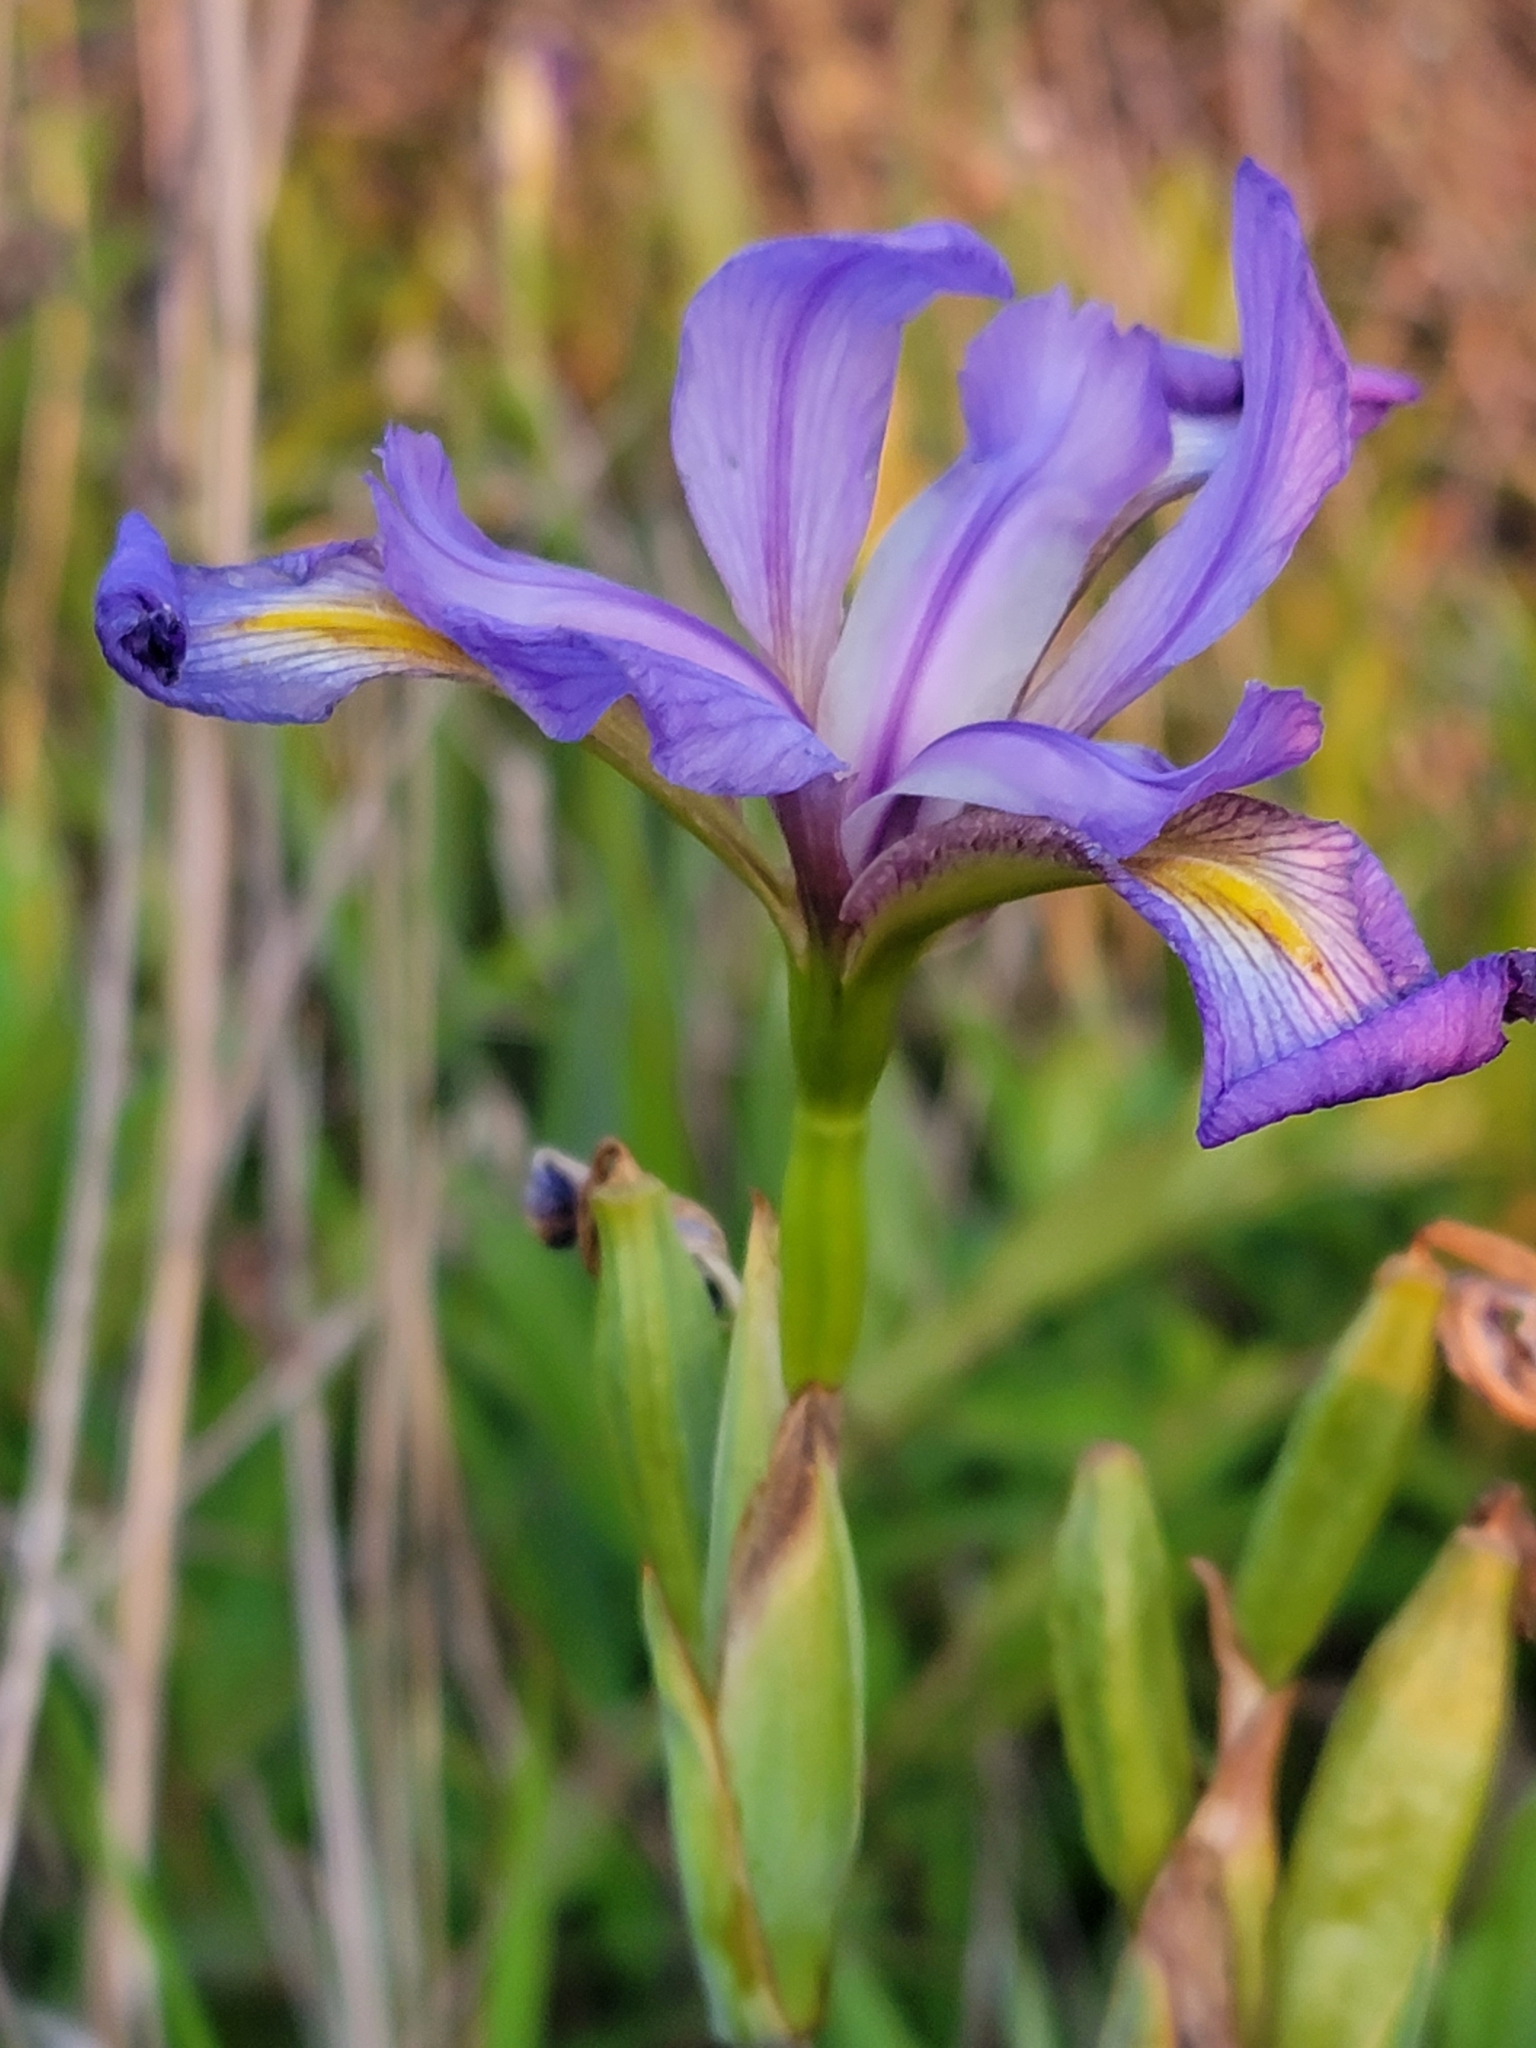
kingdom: Plantae
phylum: Tracheophyta
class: Liliopsida
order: Asparagales
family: Iridaceae
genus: Iris
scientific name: Iris virginica
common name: Southern blue flag
